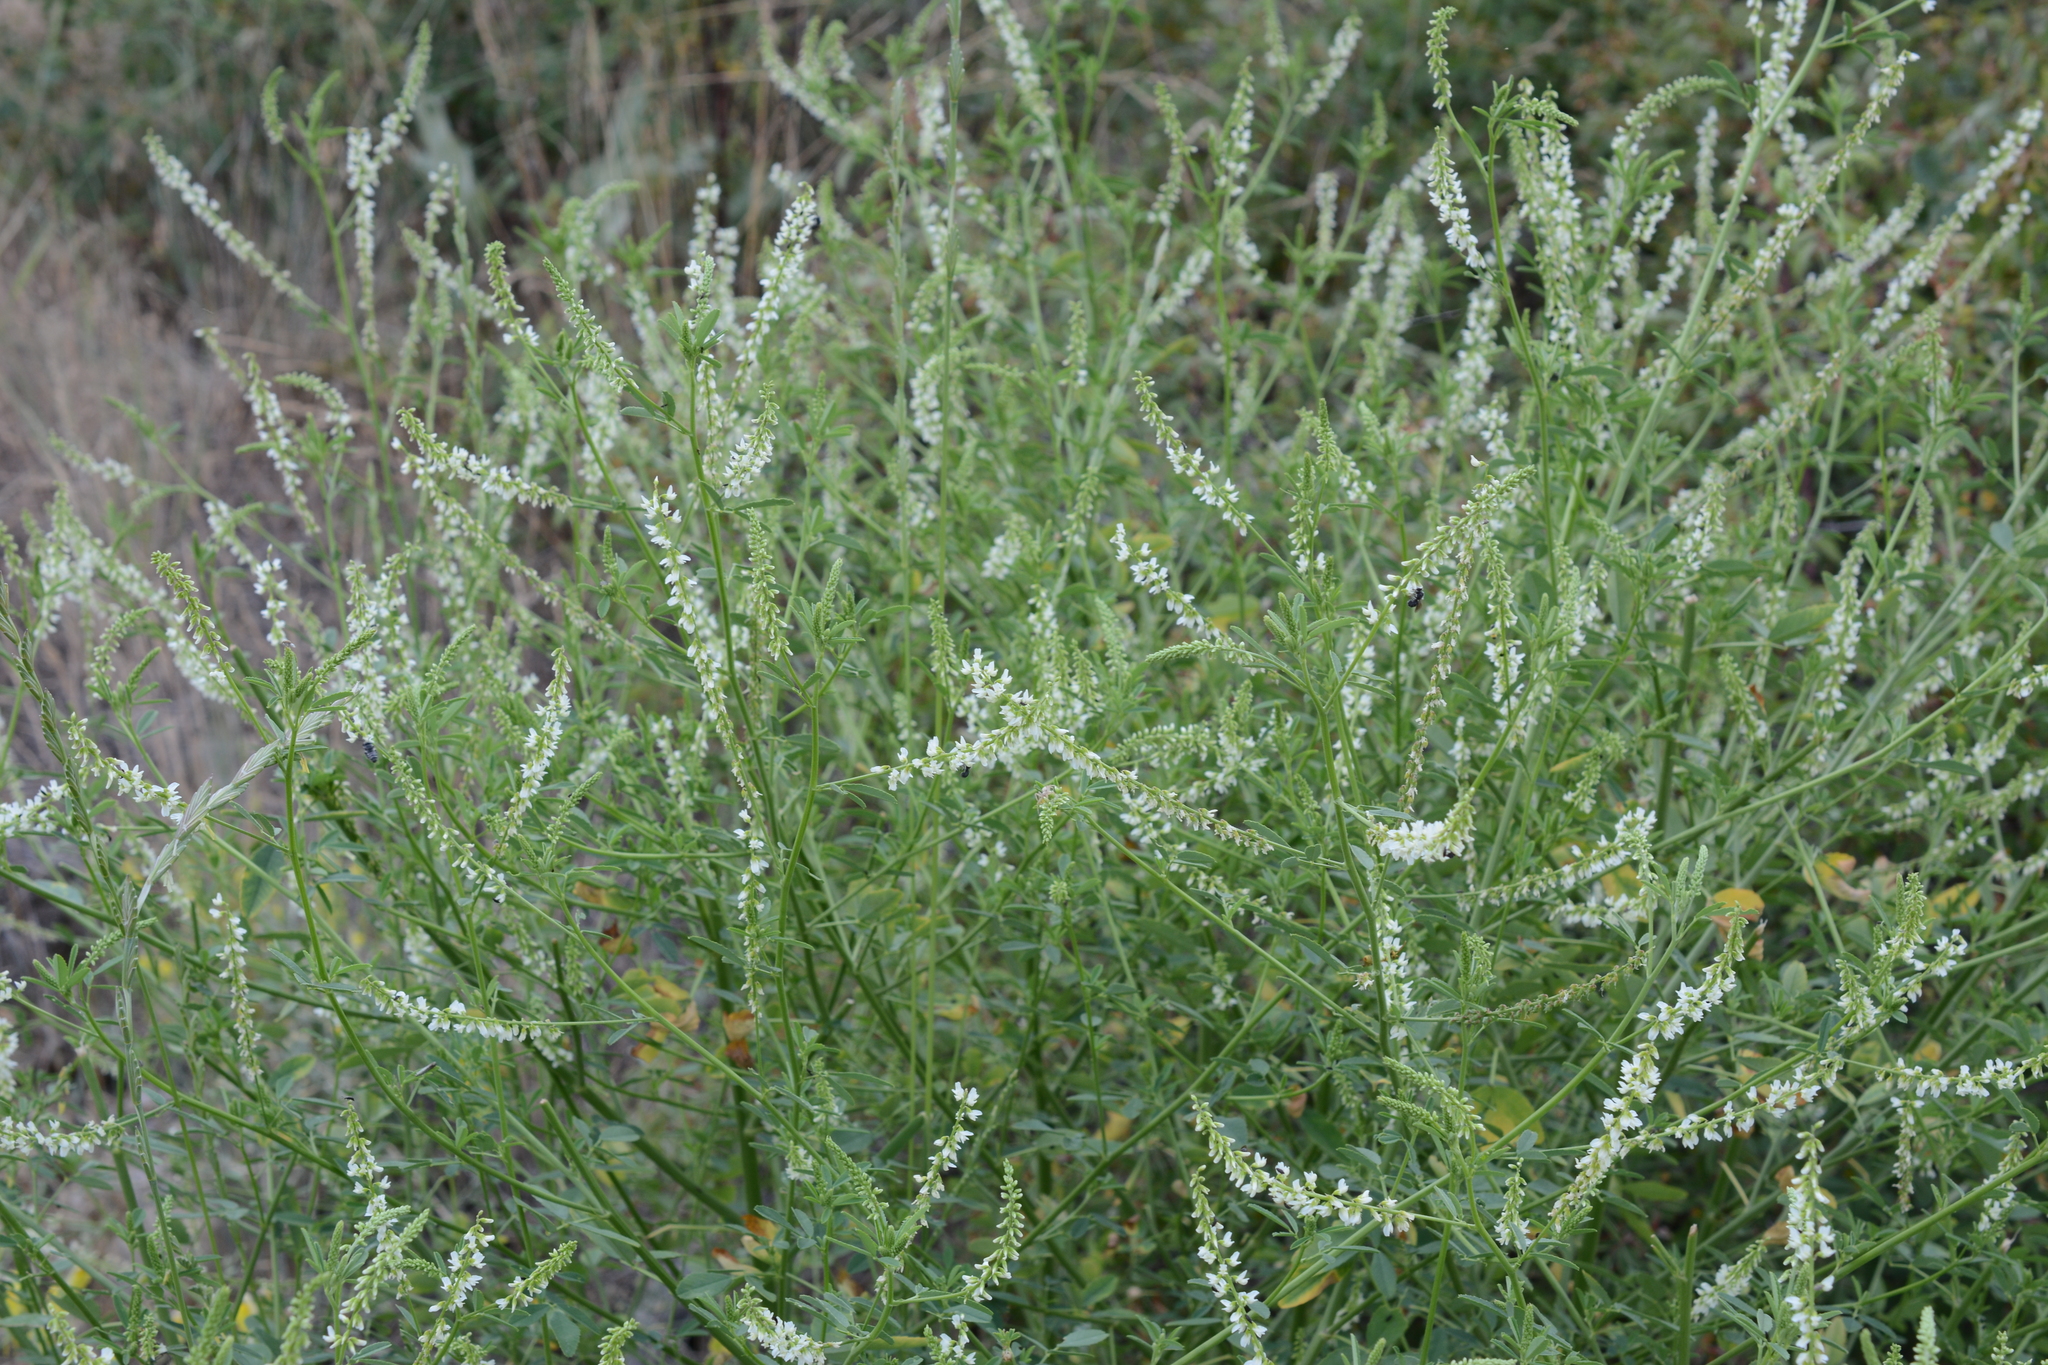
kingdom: Plantae
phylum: Tracheophyta
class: Magnoliopsida
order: Fabales
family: Fabaceae
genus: Melilotus
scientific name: Melilotus albus
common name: White melilot
